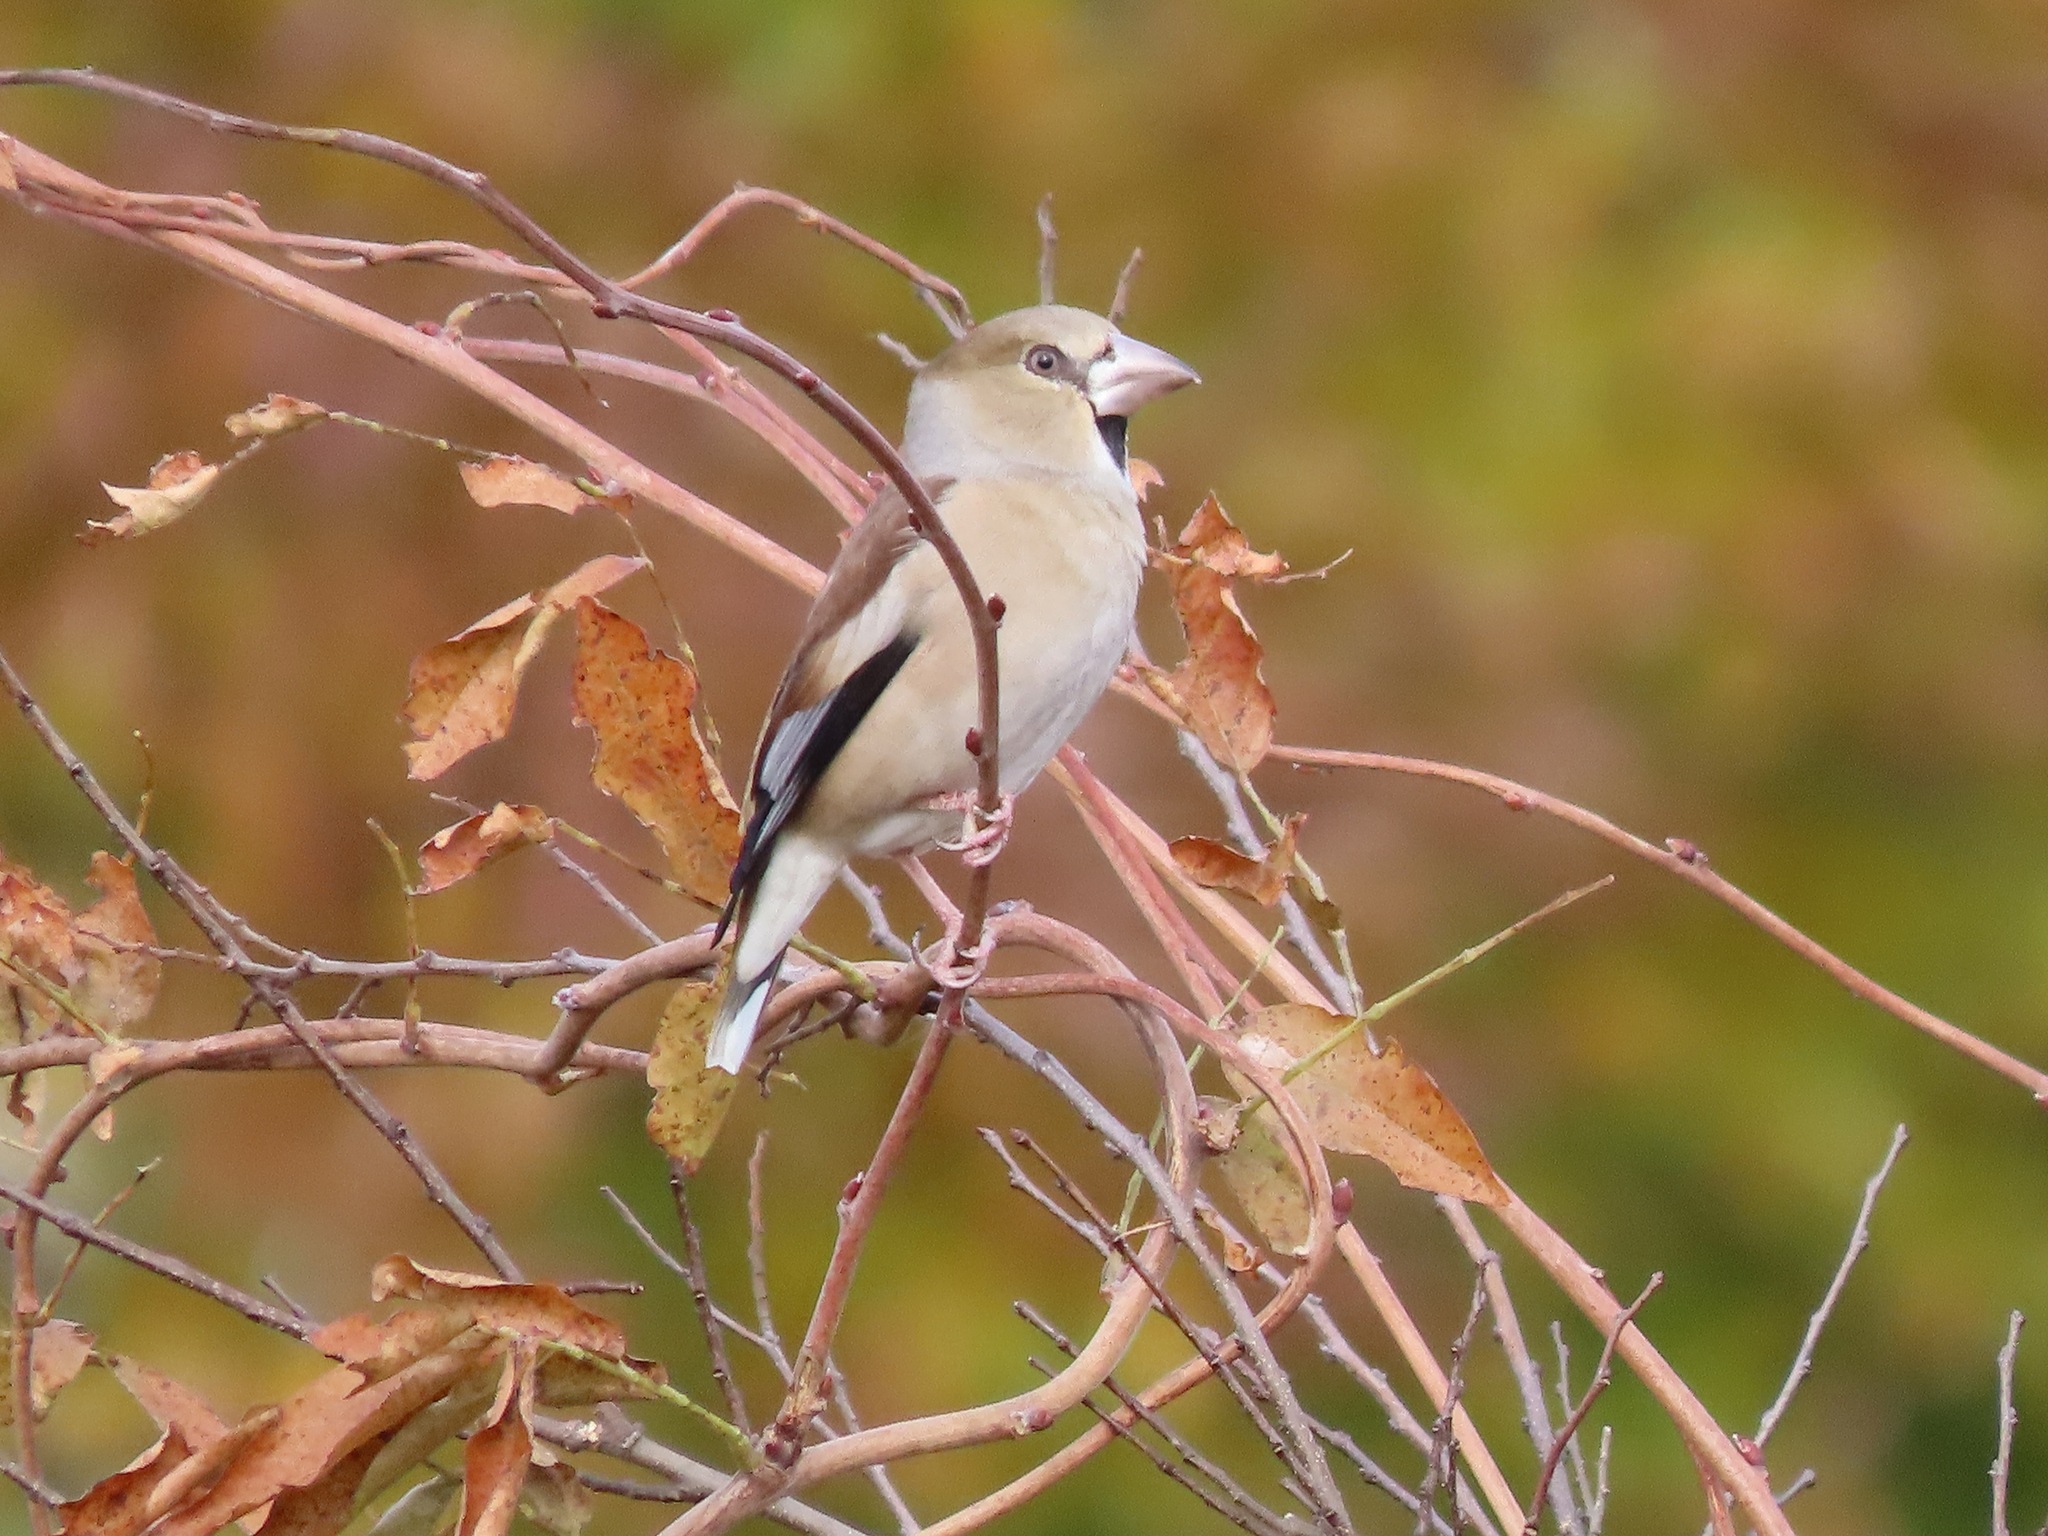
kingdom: Animalia
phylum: Chordata
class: Aves
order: Passeriformes
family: Fringillidae
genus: Coccothraustes
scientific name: Coccothraustes coccothraustes
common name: Hawfinch
